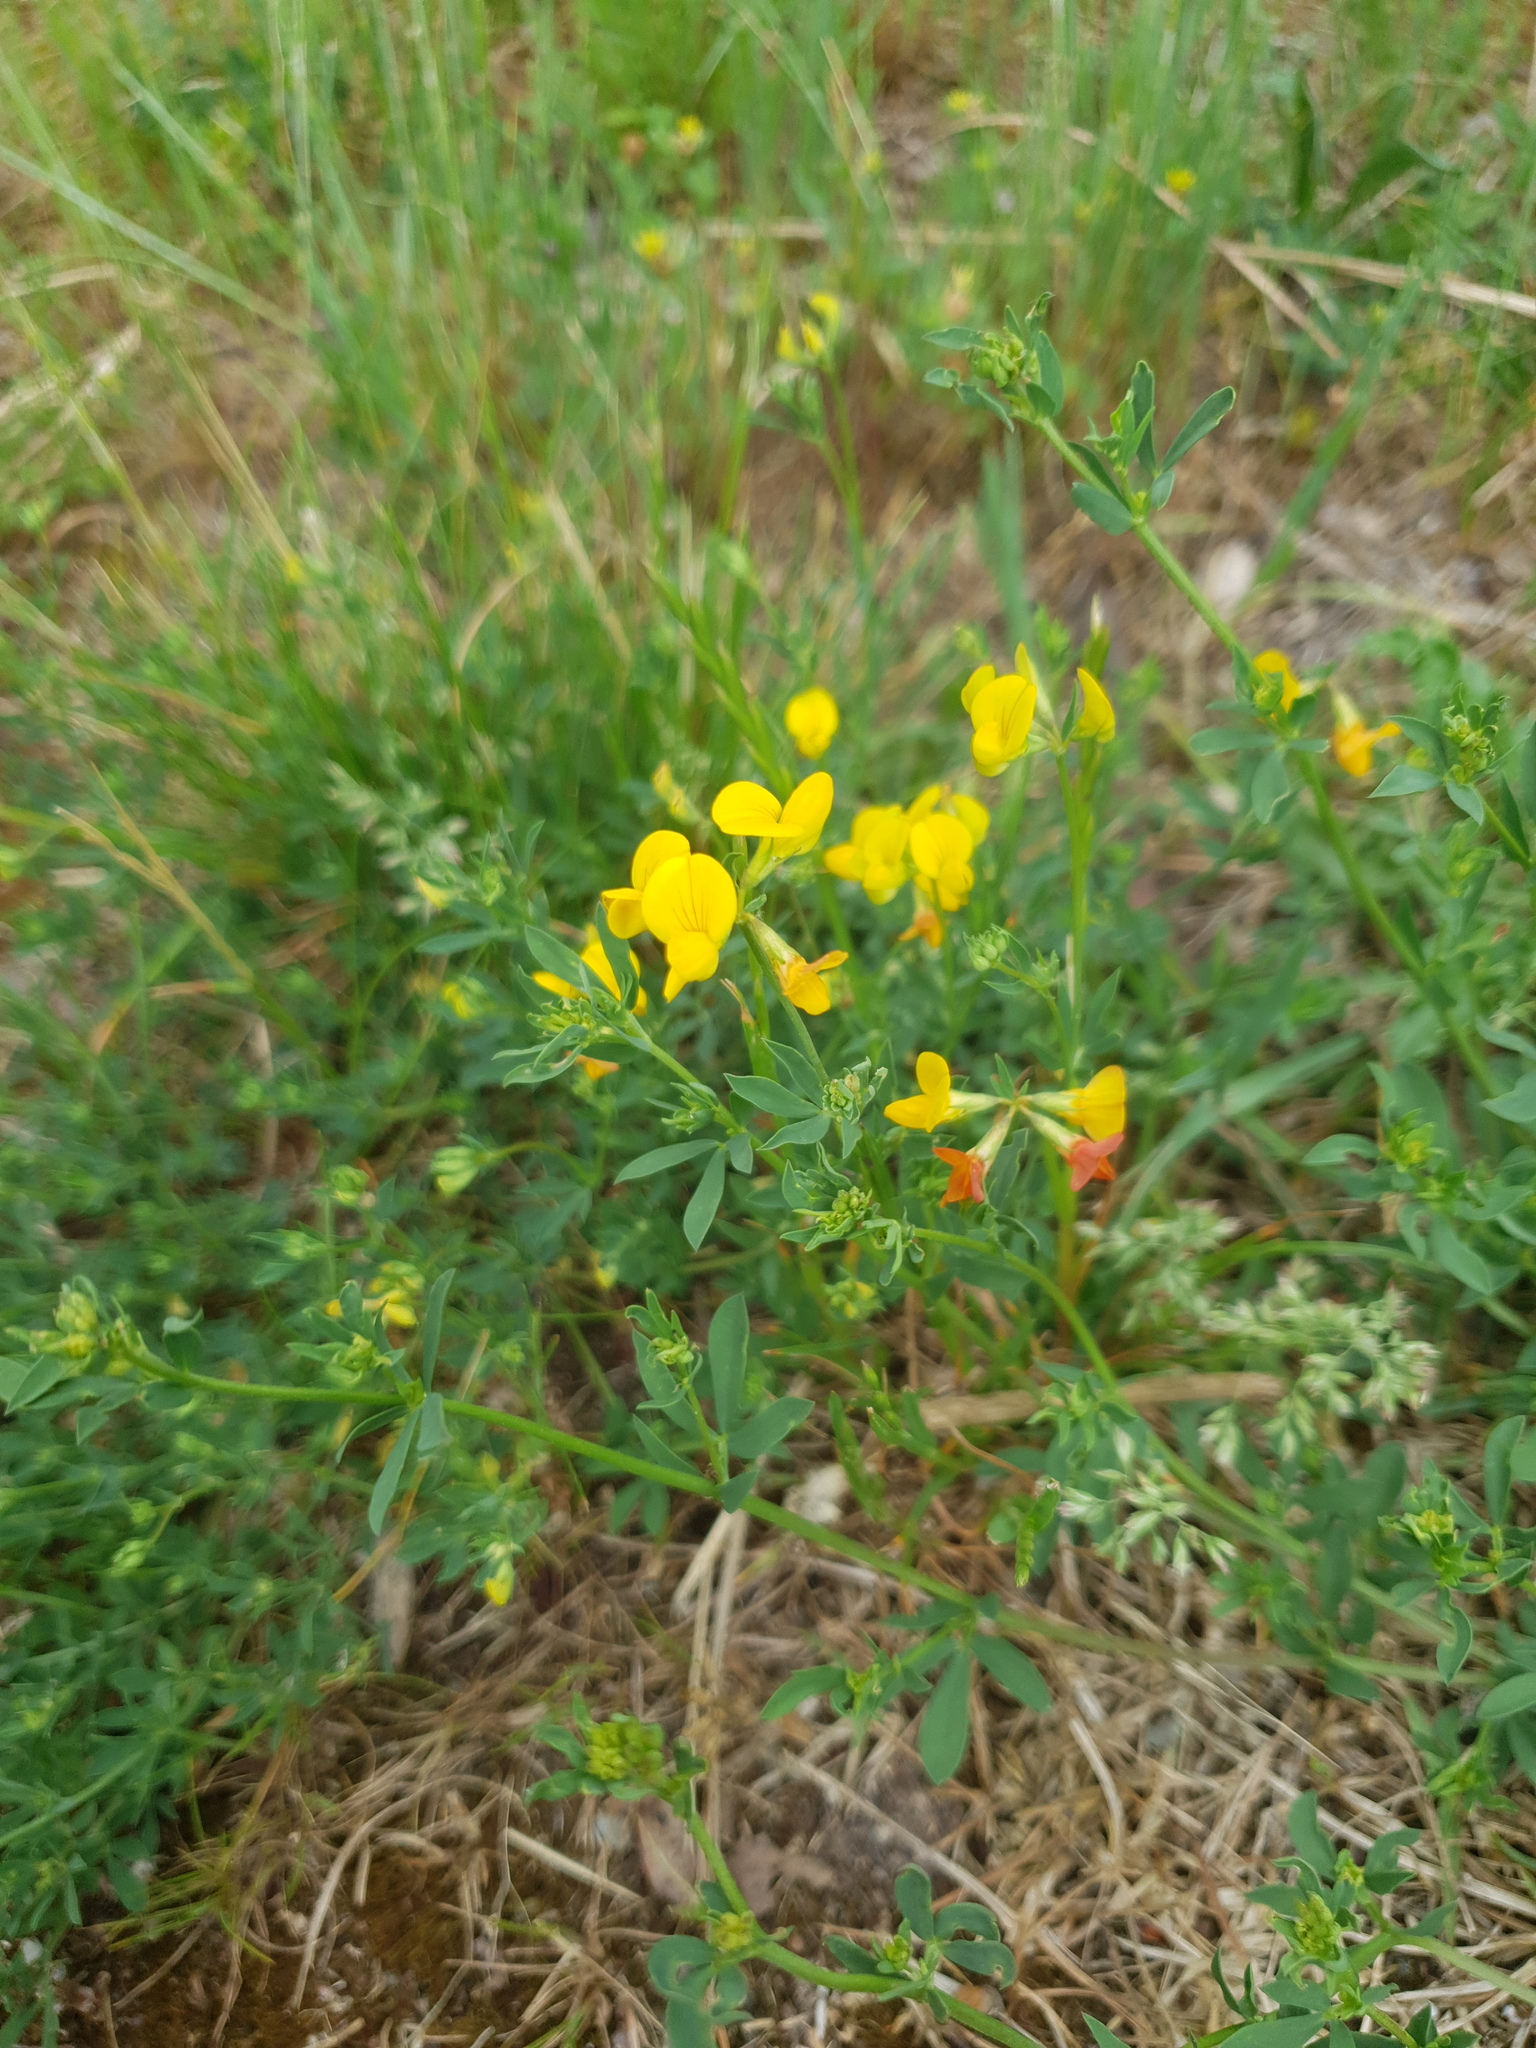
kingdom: Plantae
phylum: Tracheophyta
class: Magnoliopsida
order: Fabales
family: Fabaceae
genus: Lotus
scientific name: Lotus corniculatus
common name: Common bird's-foot-trefoil
